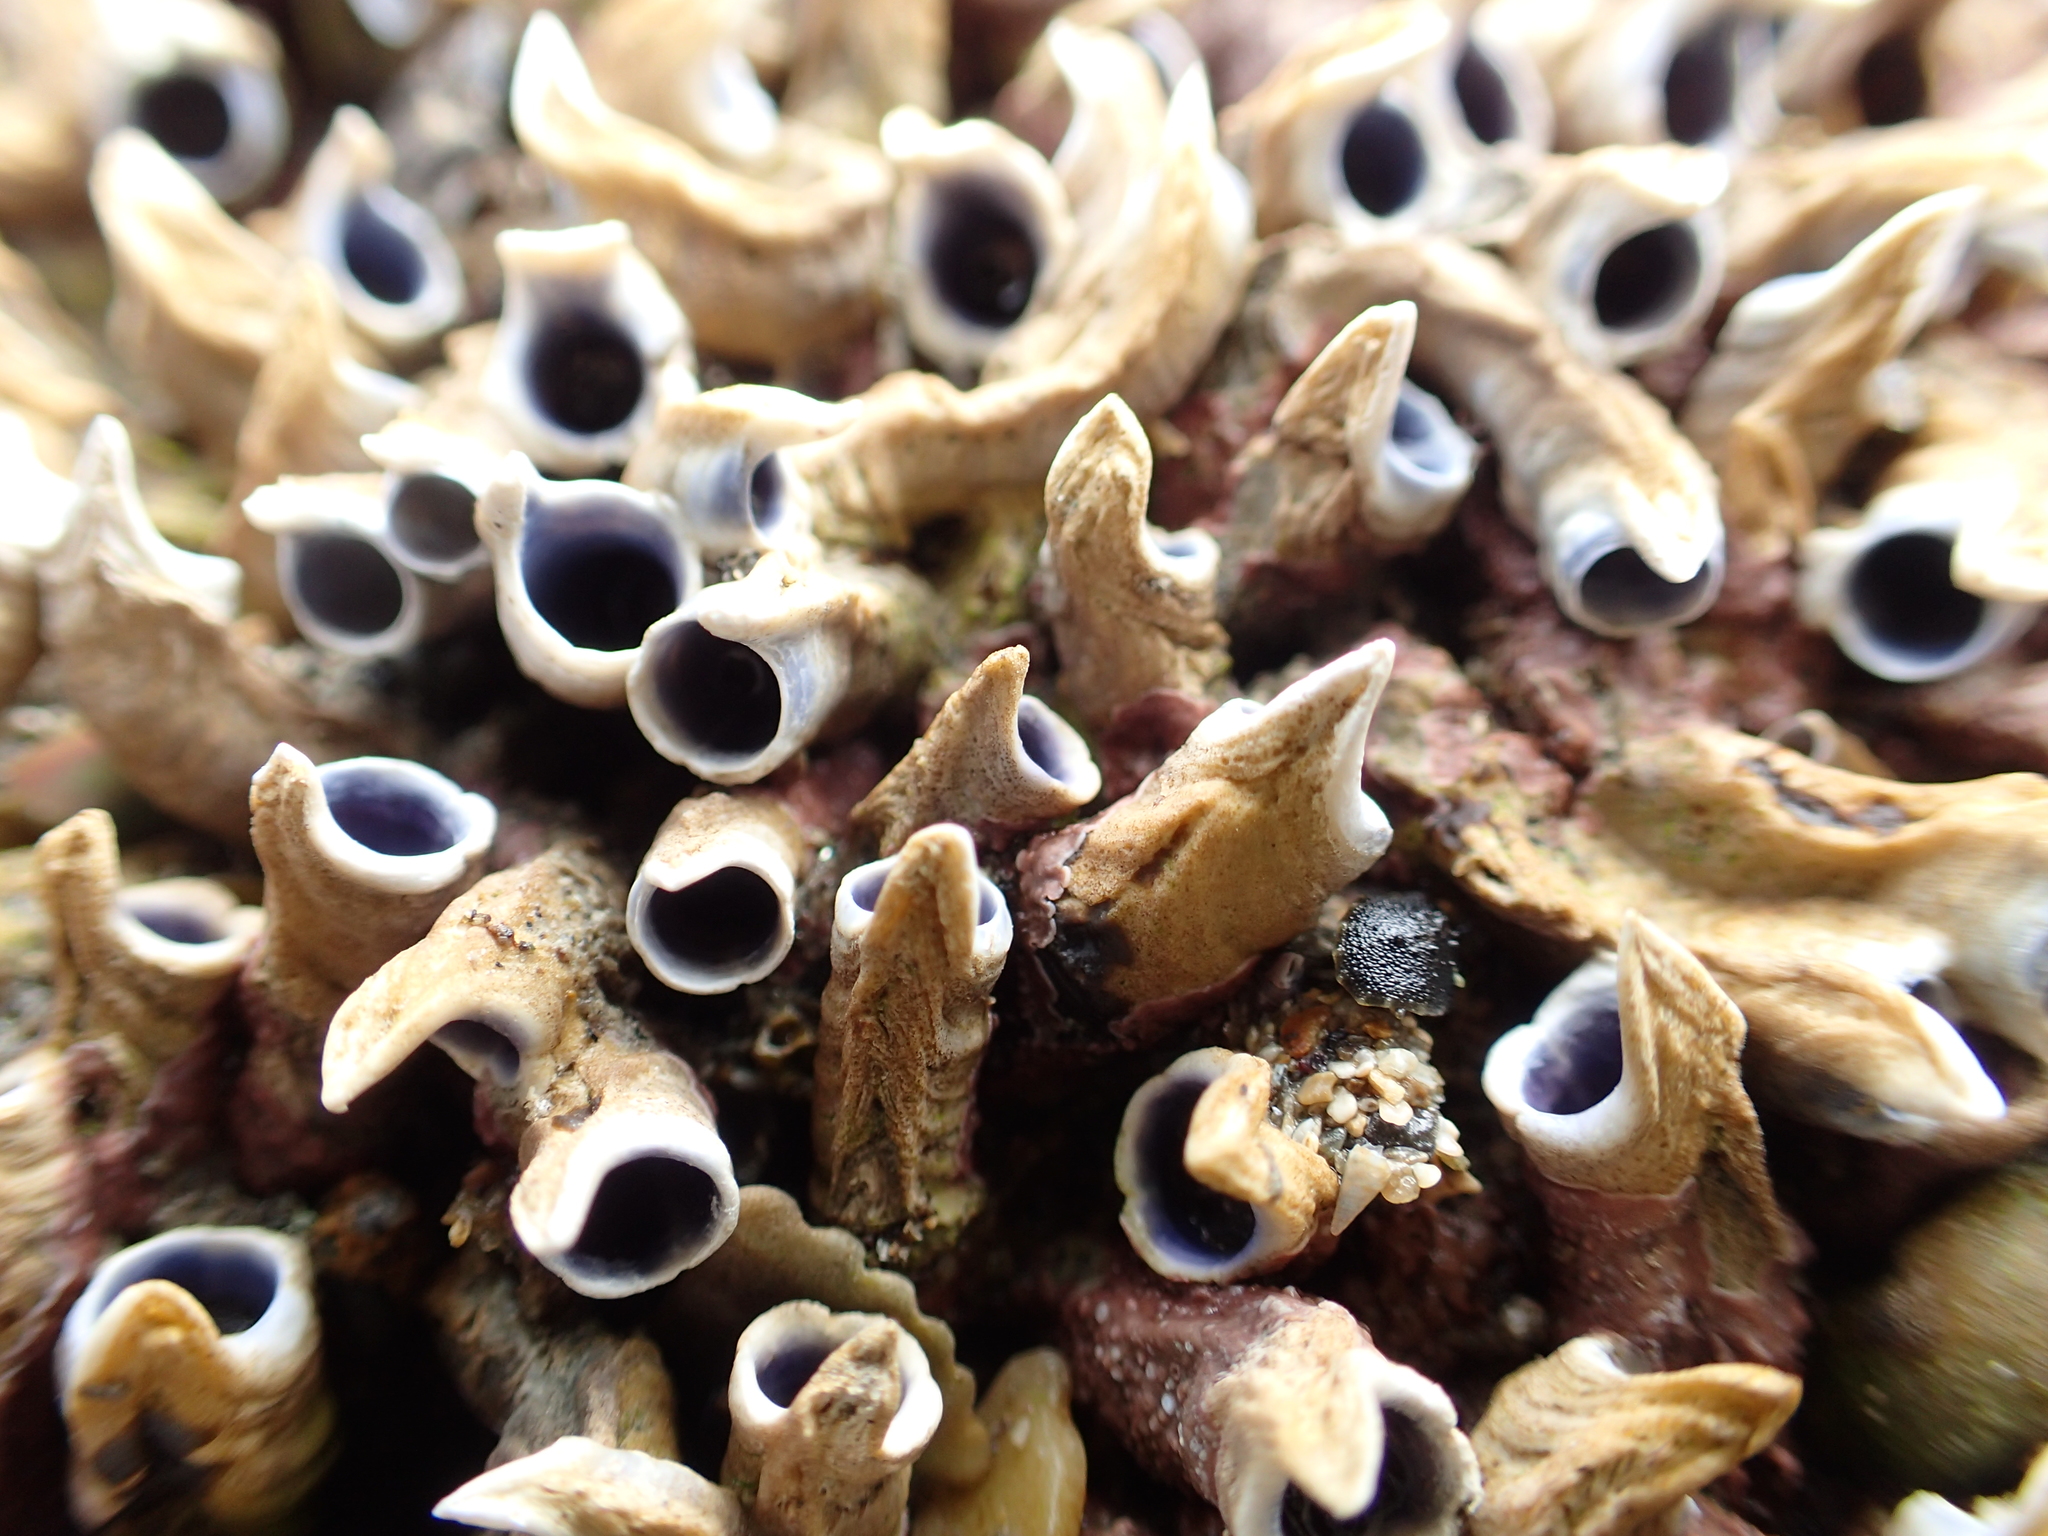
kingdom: Animalia
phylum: Annelida
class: Polychaeta
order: Sabellida
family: Serpulidae
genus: Spirobranchus
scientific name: Spirobranchus cariniferus
